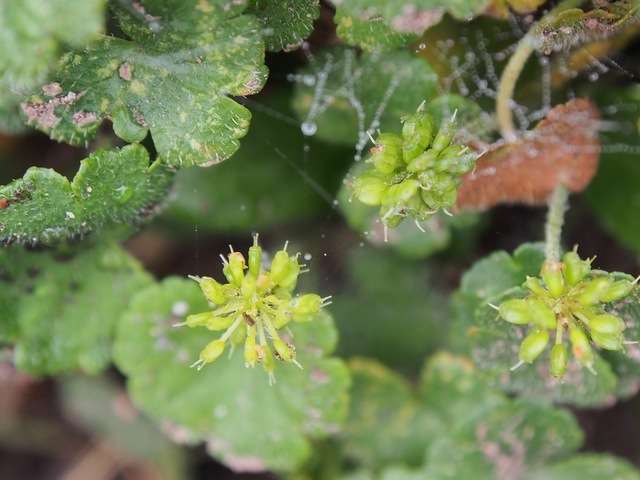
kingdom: Plantae
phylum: Tracheophyta
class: Magnoliopsida
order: Apiales
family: Araliaceae
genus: Hydrocotyle
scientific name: Hydrocotyle algida
